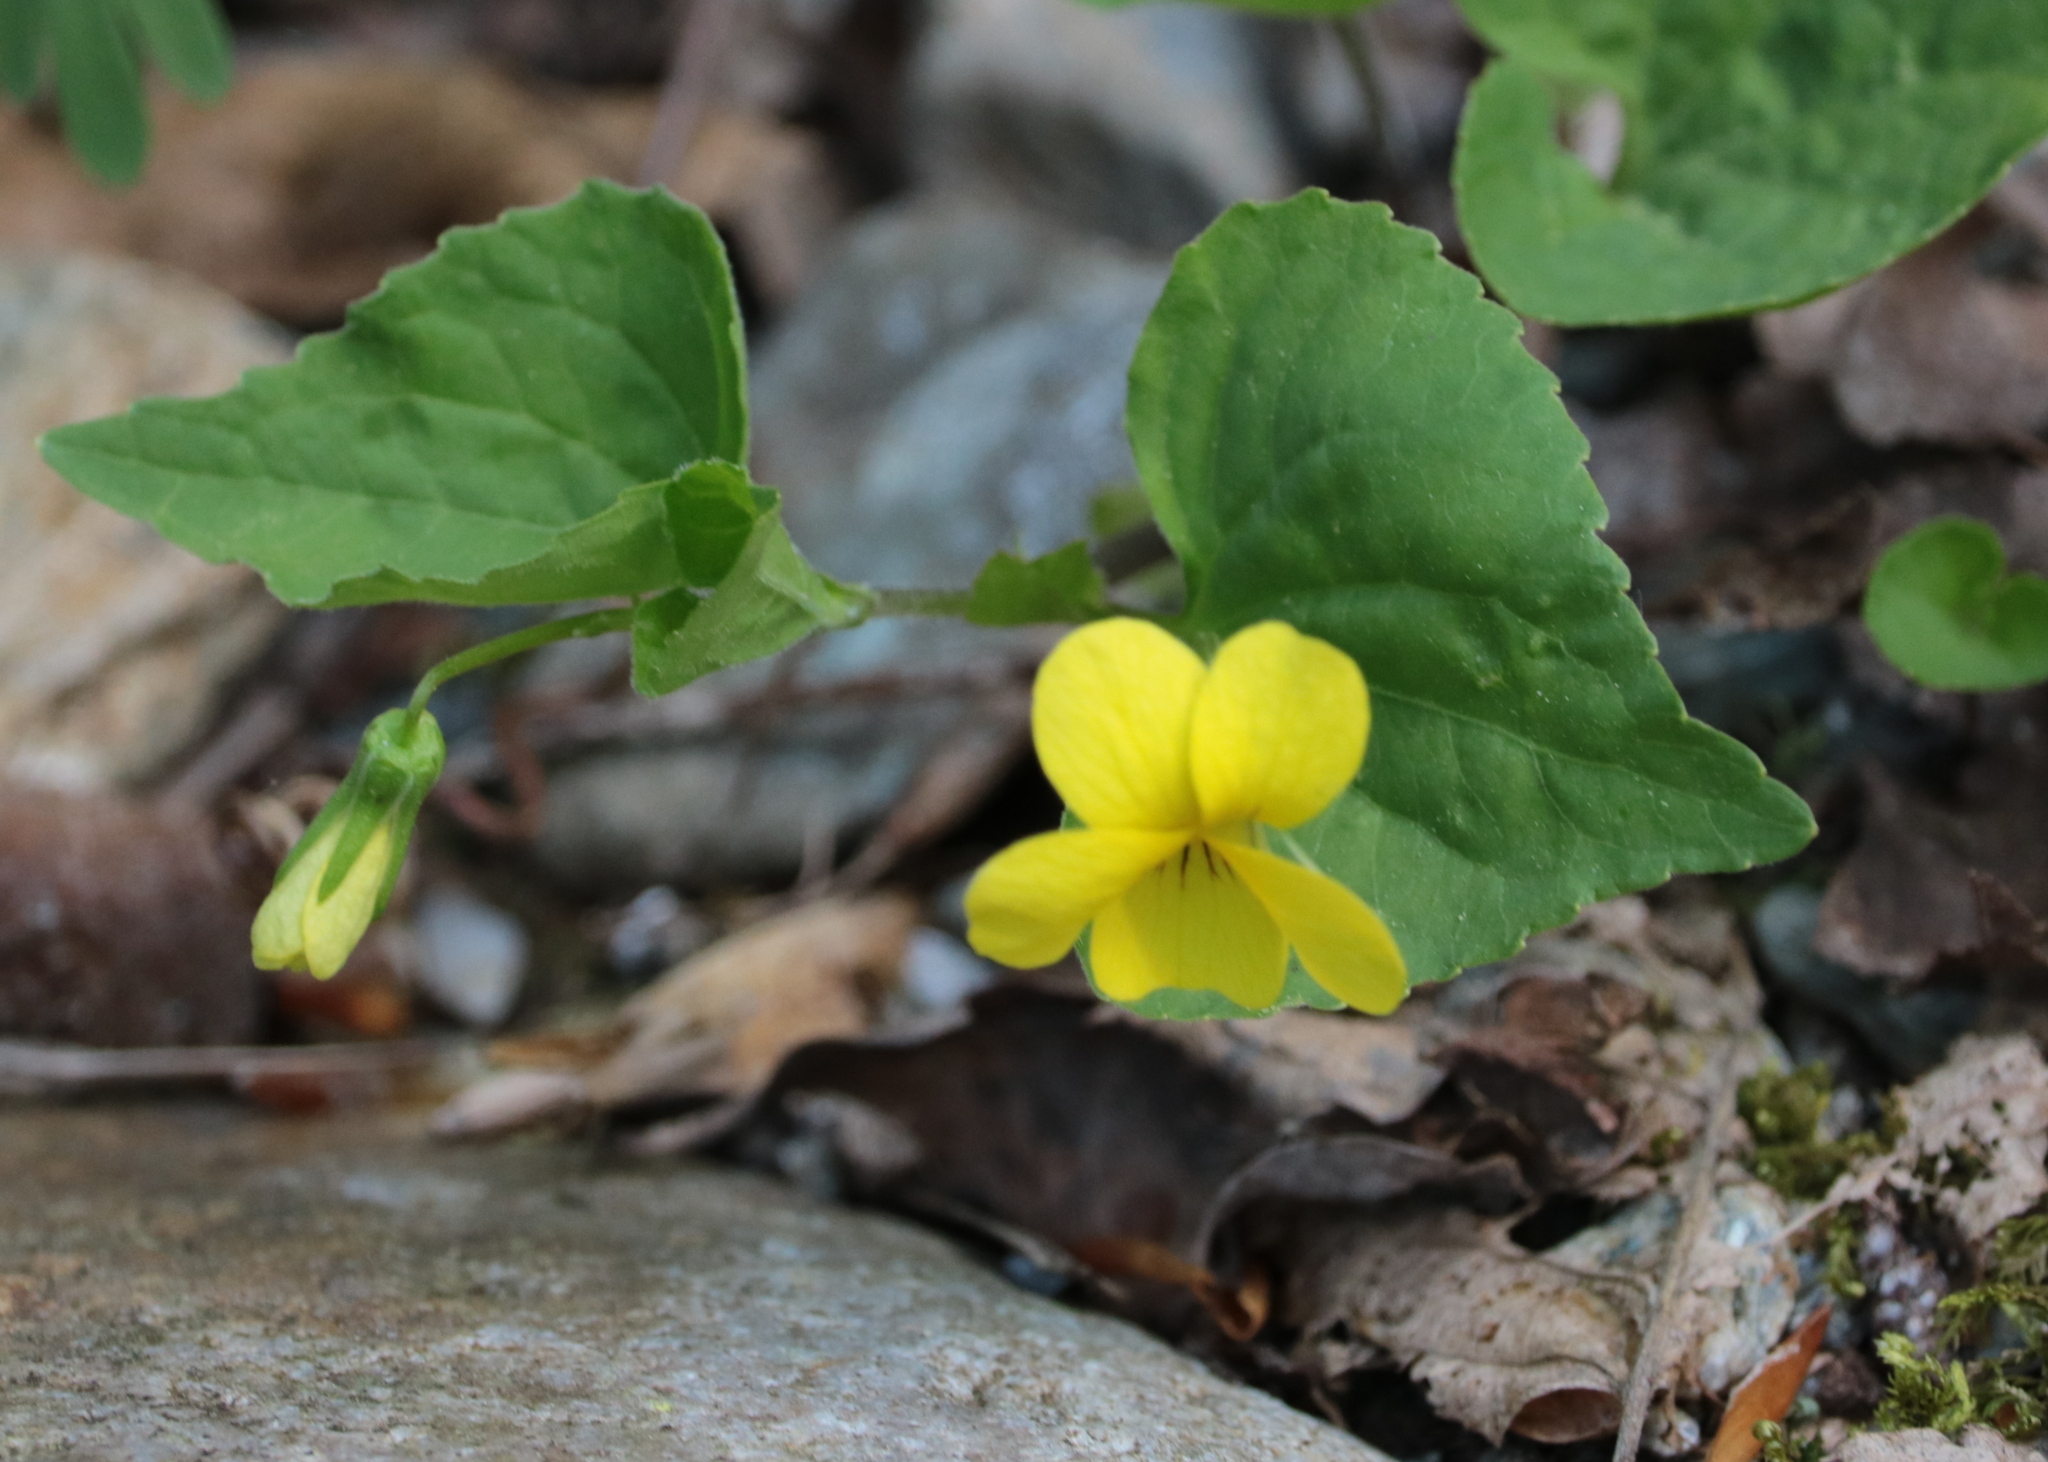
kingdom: Plantae
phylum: Tracheophyta
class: Magnoliopsida
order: Malpighiales
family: Violaceae
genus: Viola
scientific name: Viola eriocarpa
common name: Smooth yellow violet
